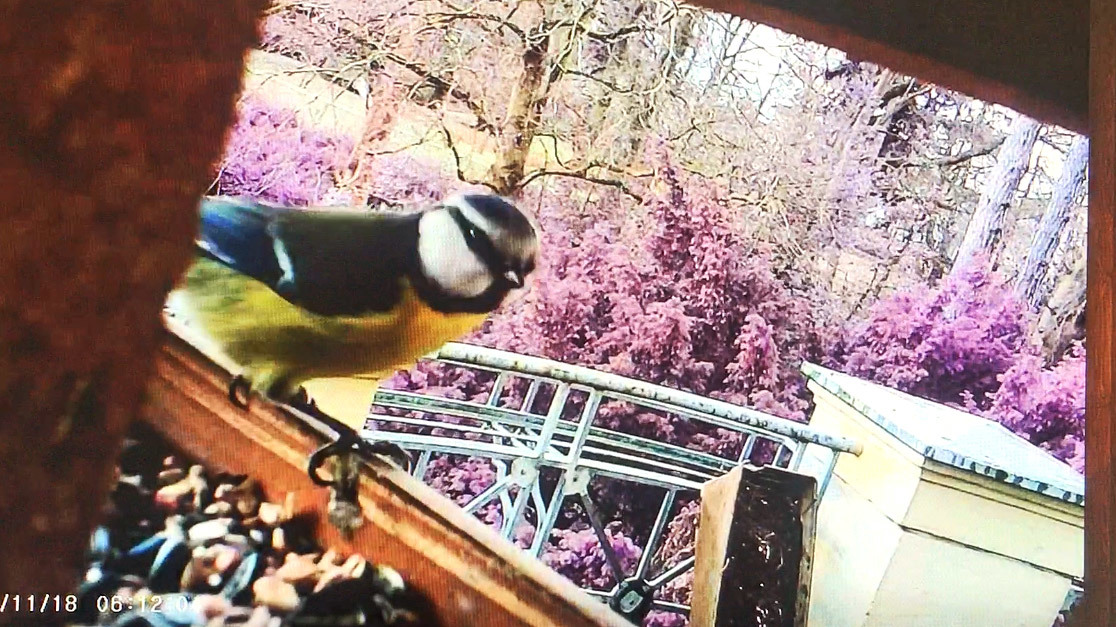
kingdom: Animalia
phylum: Chordata
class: Aves
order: Passeriformes
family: Paridae
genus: Cyanistes
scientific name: Cyanistes caeruleus
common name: Eurasian blue tit
